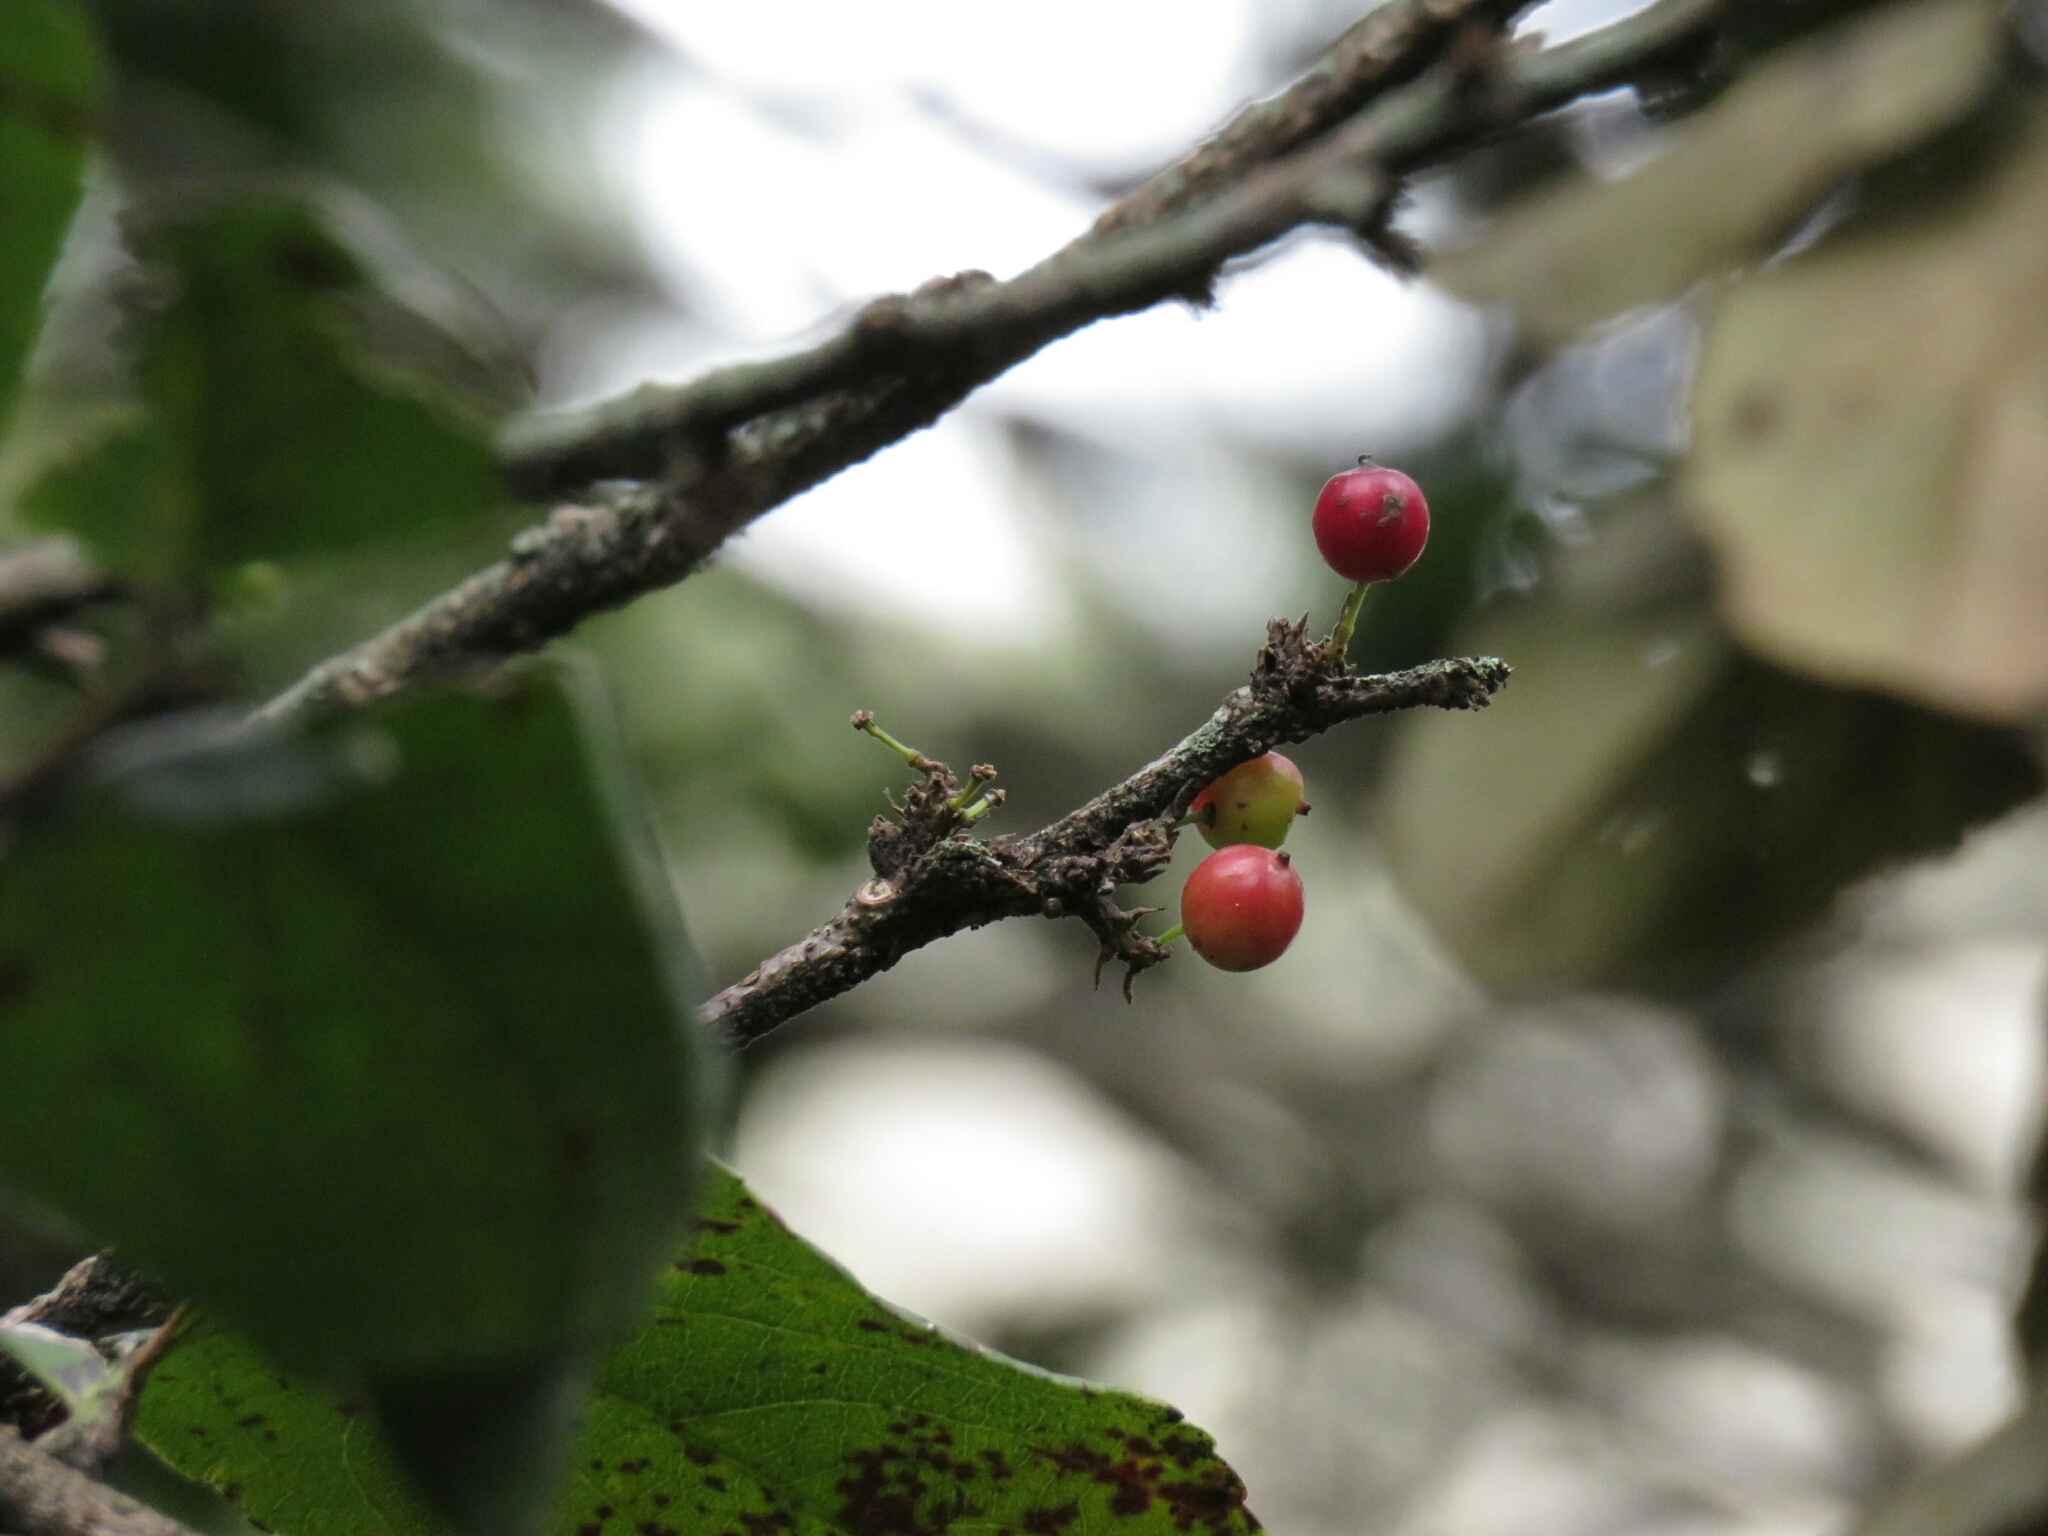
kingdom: Plantae
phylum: Tracheophyta
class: Magnoliopsida
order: Malpighiales
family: Salicaceae
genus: Xylosma
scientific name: Xylosma spiculifera
